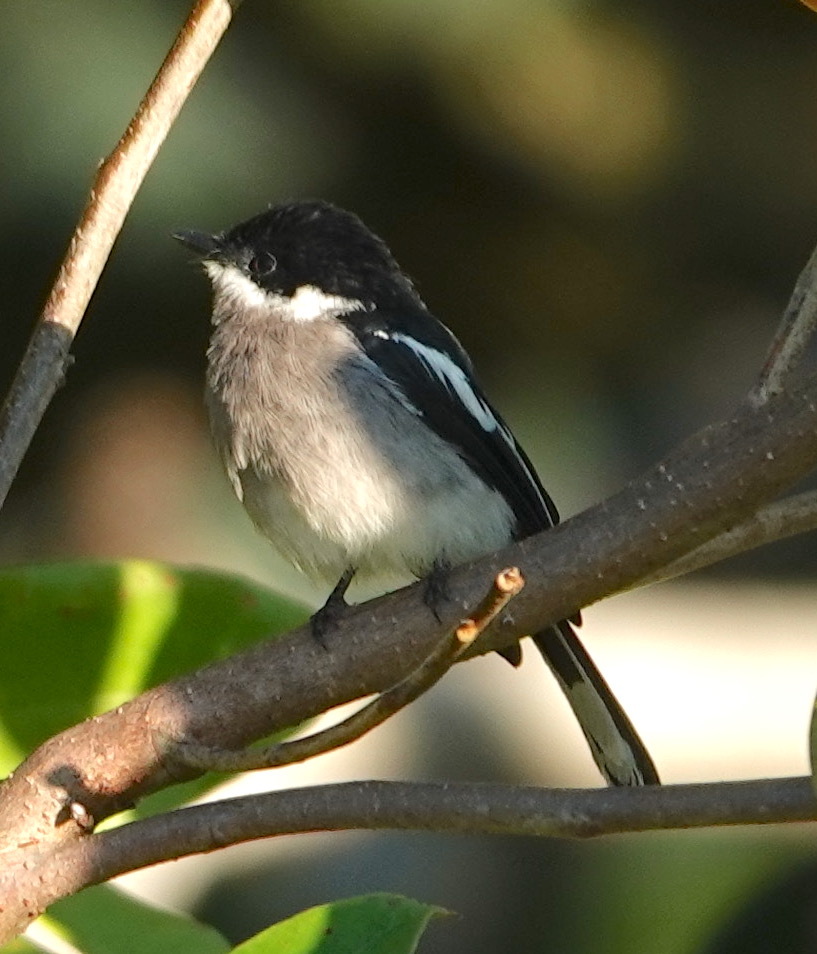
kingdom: Animalia
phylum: Chordata
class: Aves
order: Passeriformes
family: Tephrodornithidae
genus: Hemipus
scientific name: Hemipus picatus
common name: Bar-winged flycatcher-shrike
